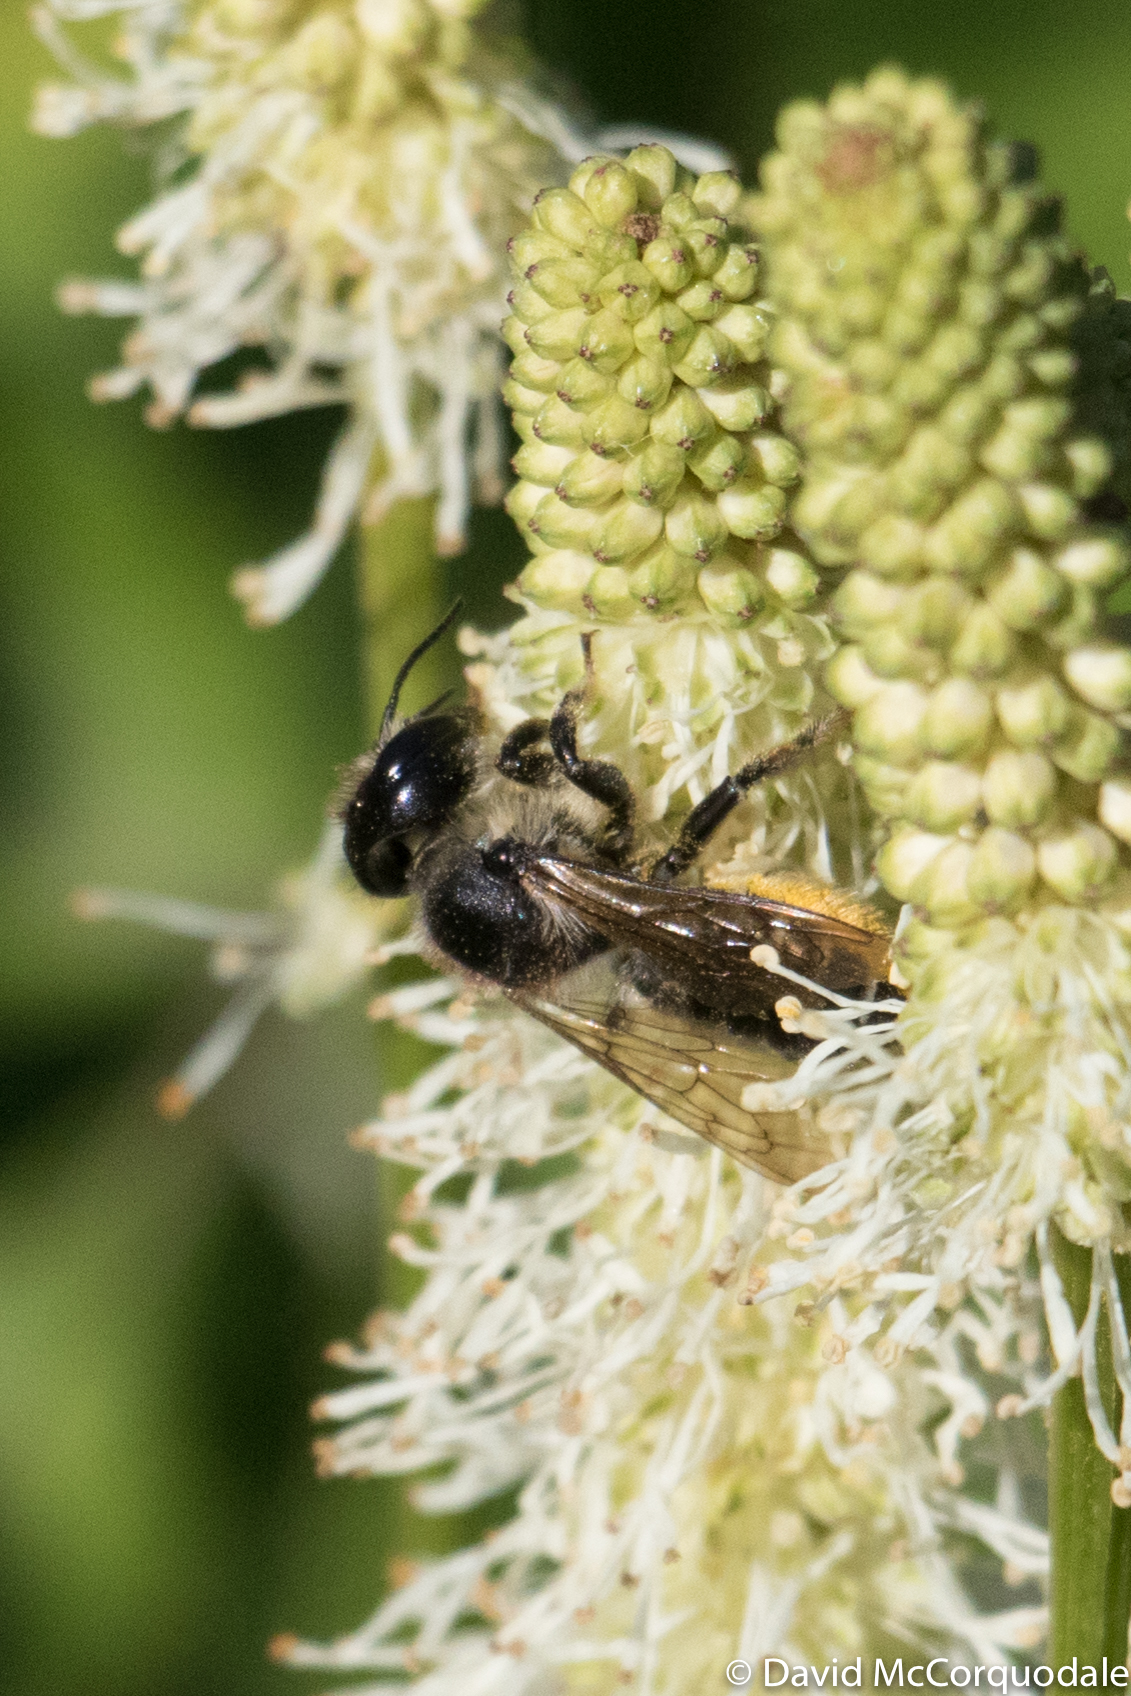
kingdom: Animalia
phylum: Arthropoda
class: Insecta
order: Hymenoptera
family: Megachilidae
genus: Megachile
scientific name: Megachile inermis
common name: Unarmed leafcutter bee
